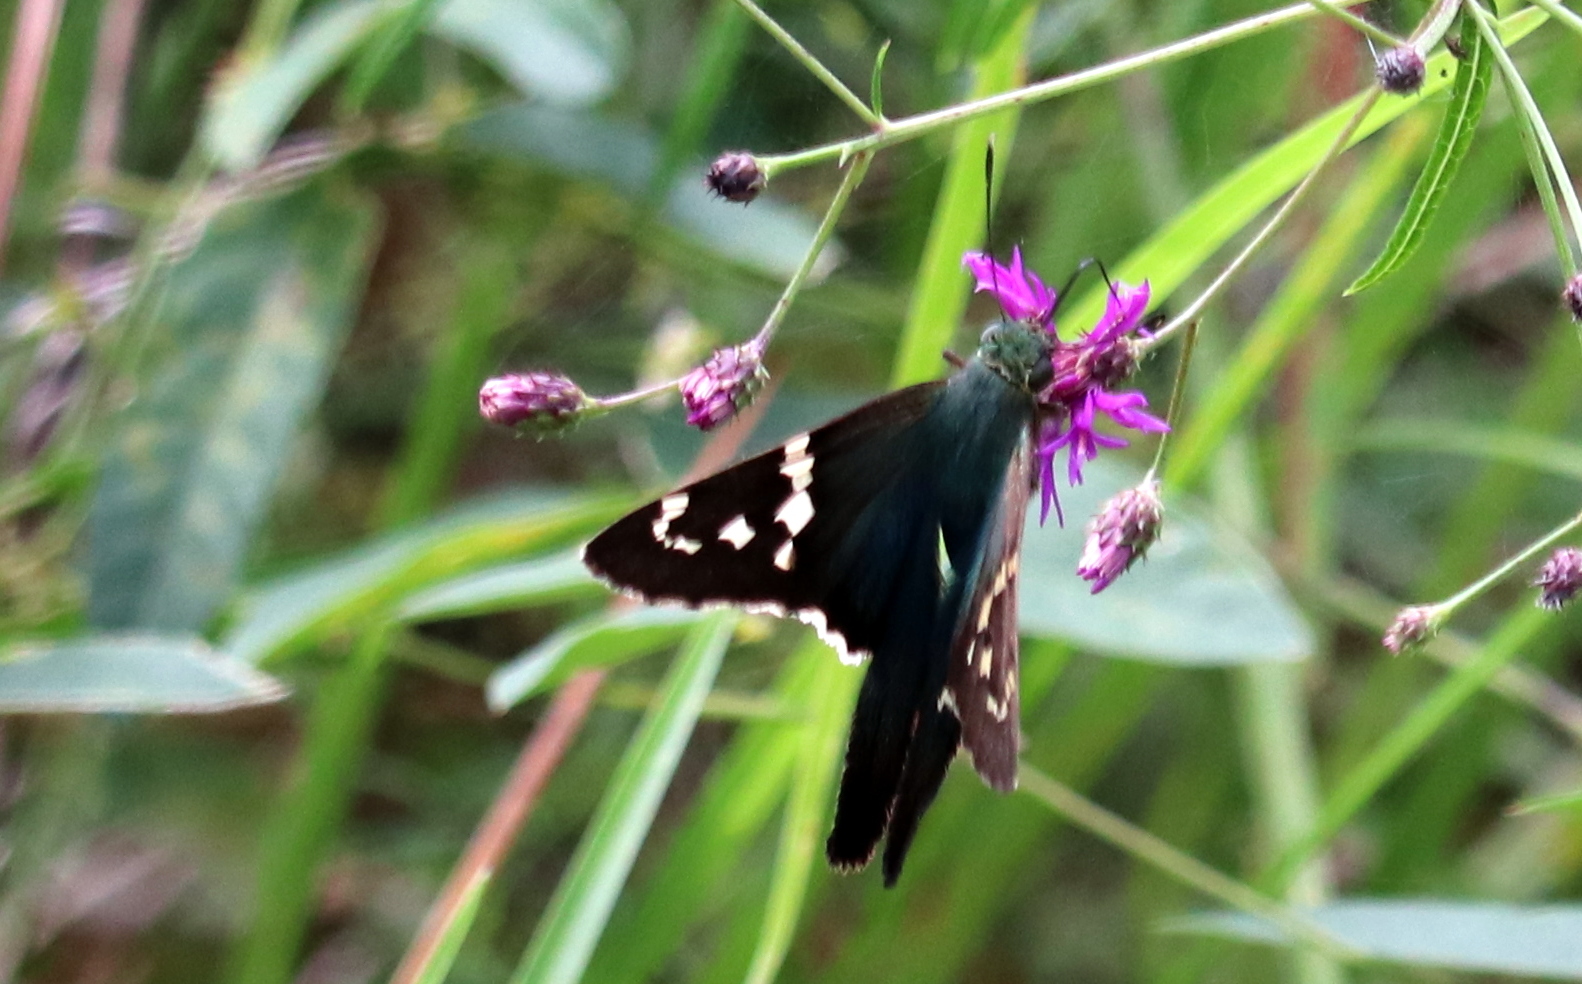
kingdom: Animalia
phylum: Arthropoda
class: Insecta
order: Lepidoptera
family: Hesperiidae
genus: Urbanus
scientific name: Urbanus proteus
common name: Long-tailed skipper
